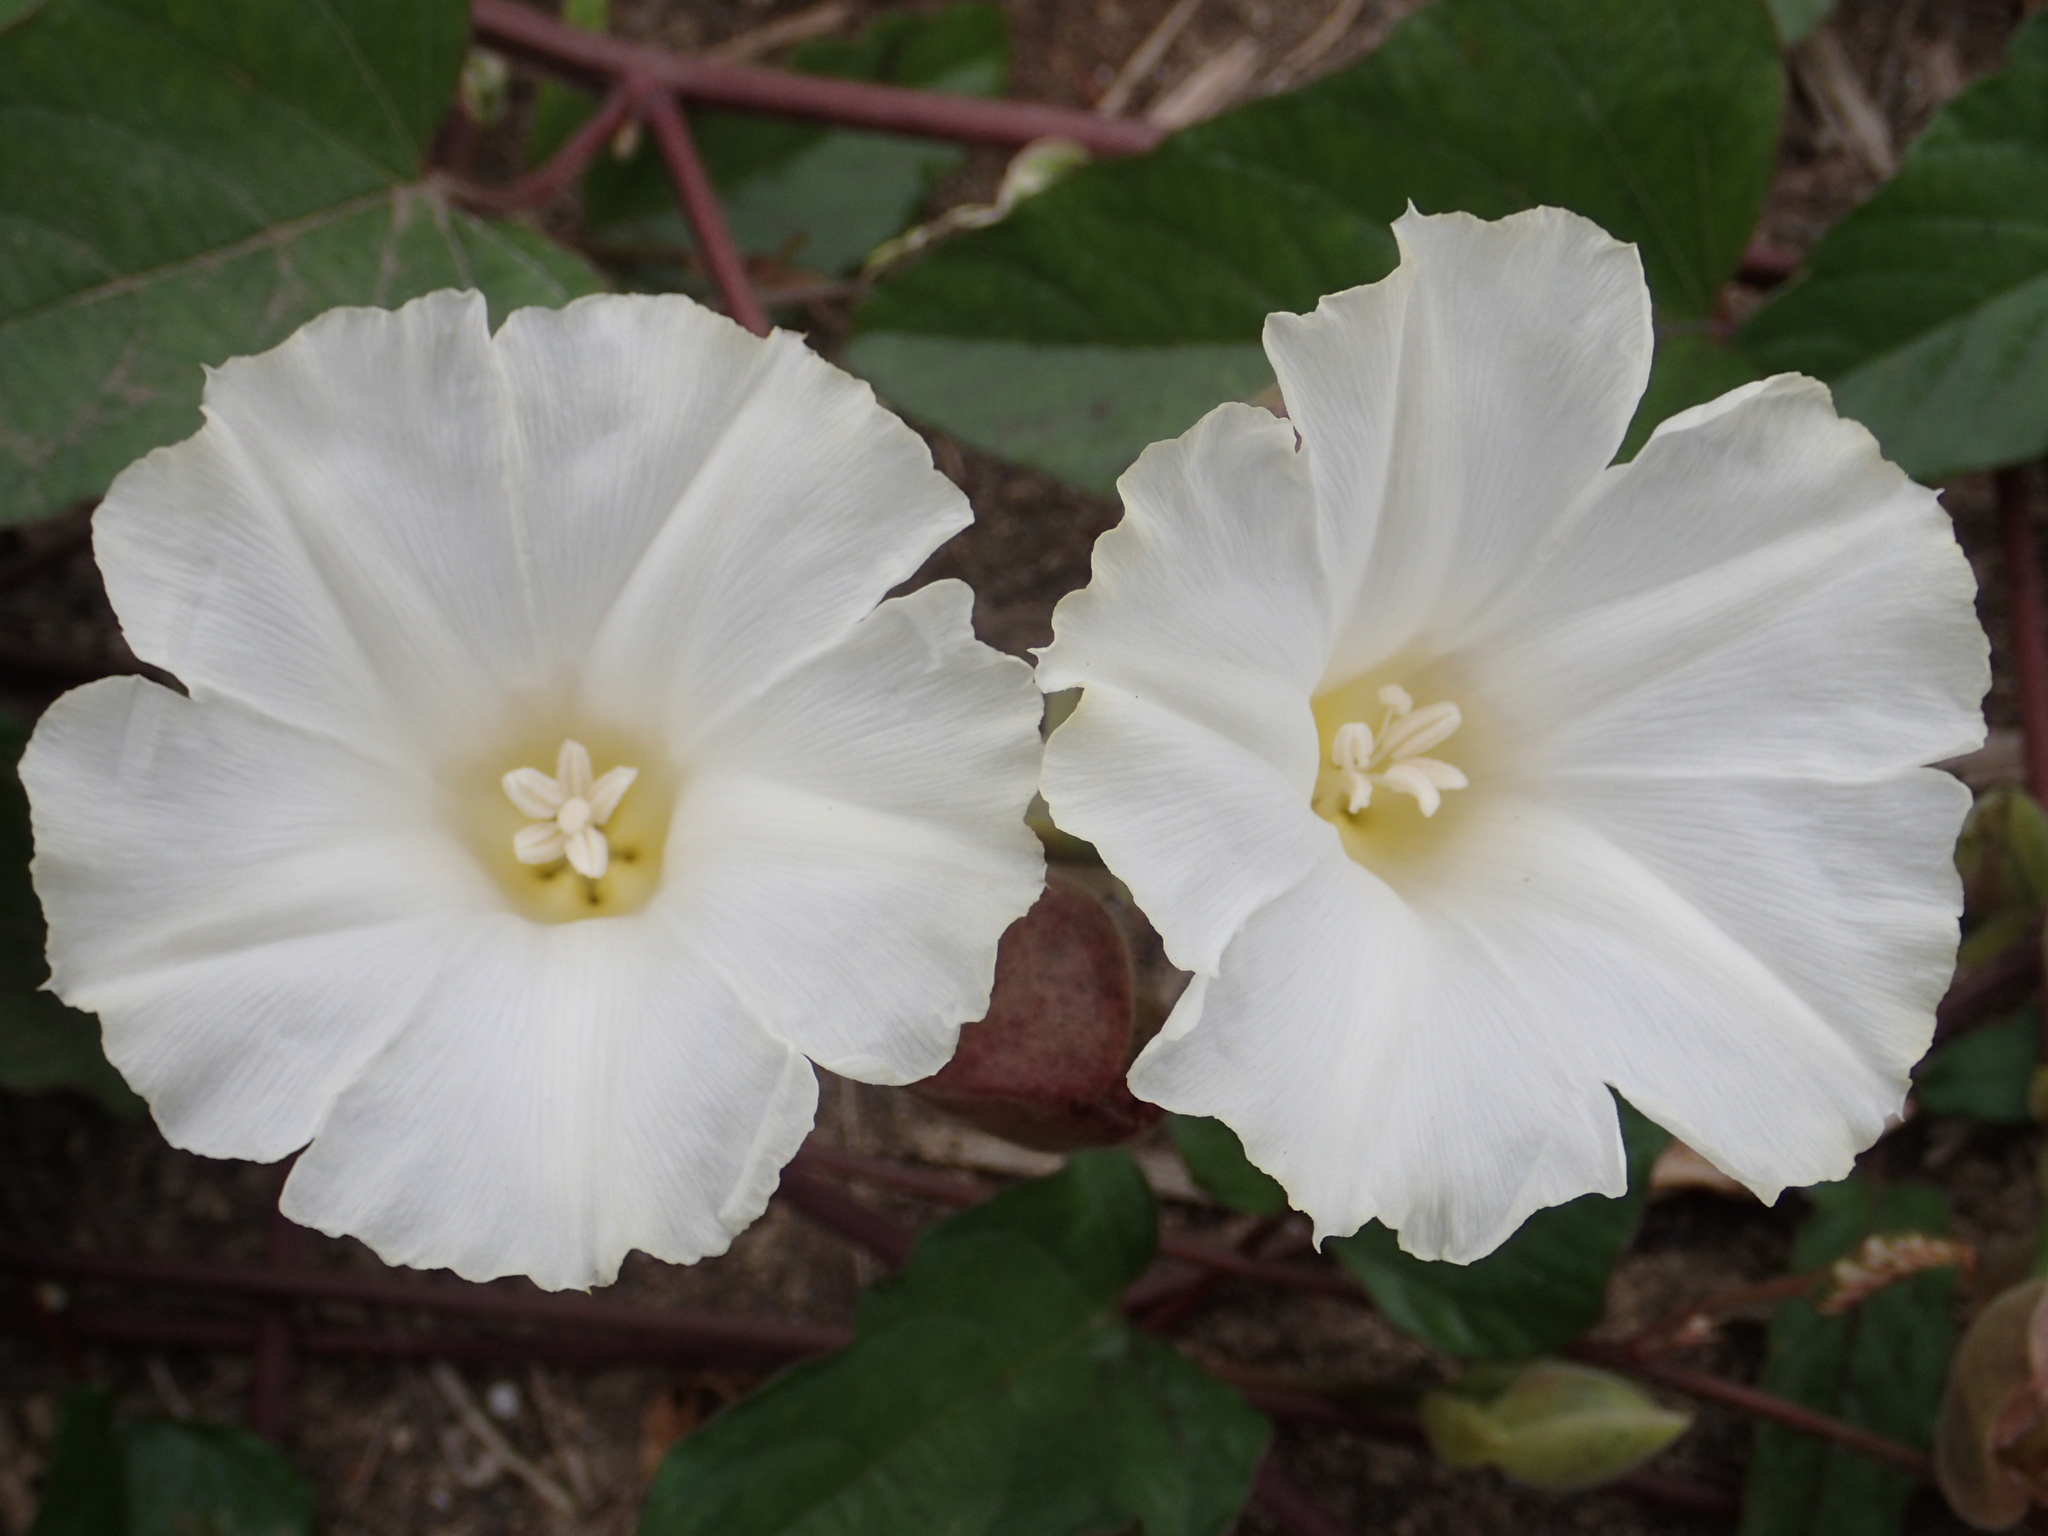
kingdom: Plantae
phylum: Tracheophyta
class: Magnoliopsida
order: Solanales
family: Convolvulaceae
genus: Operculina
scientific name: Operculina turpethum
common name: Transparent wood-rose
